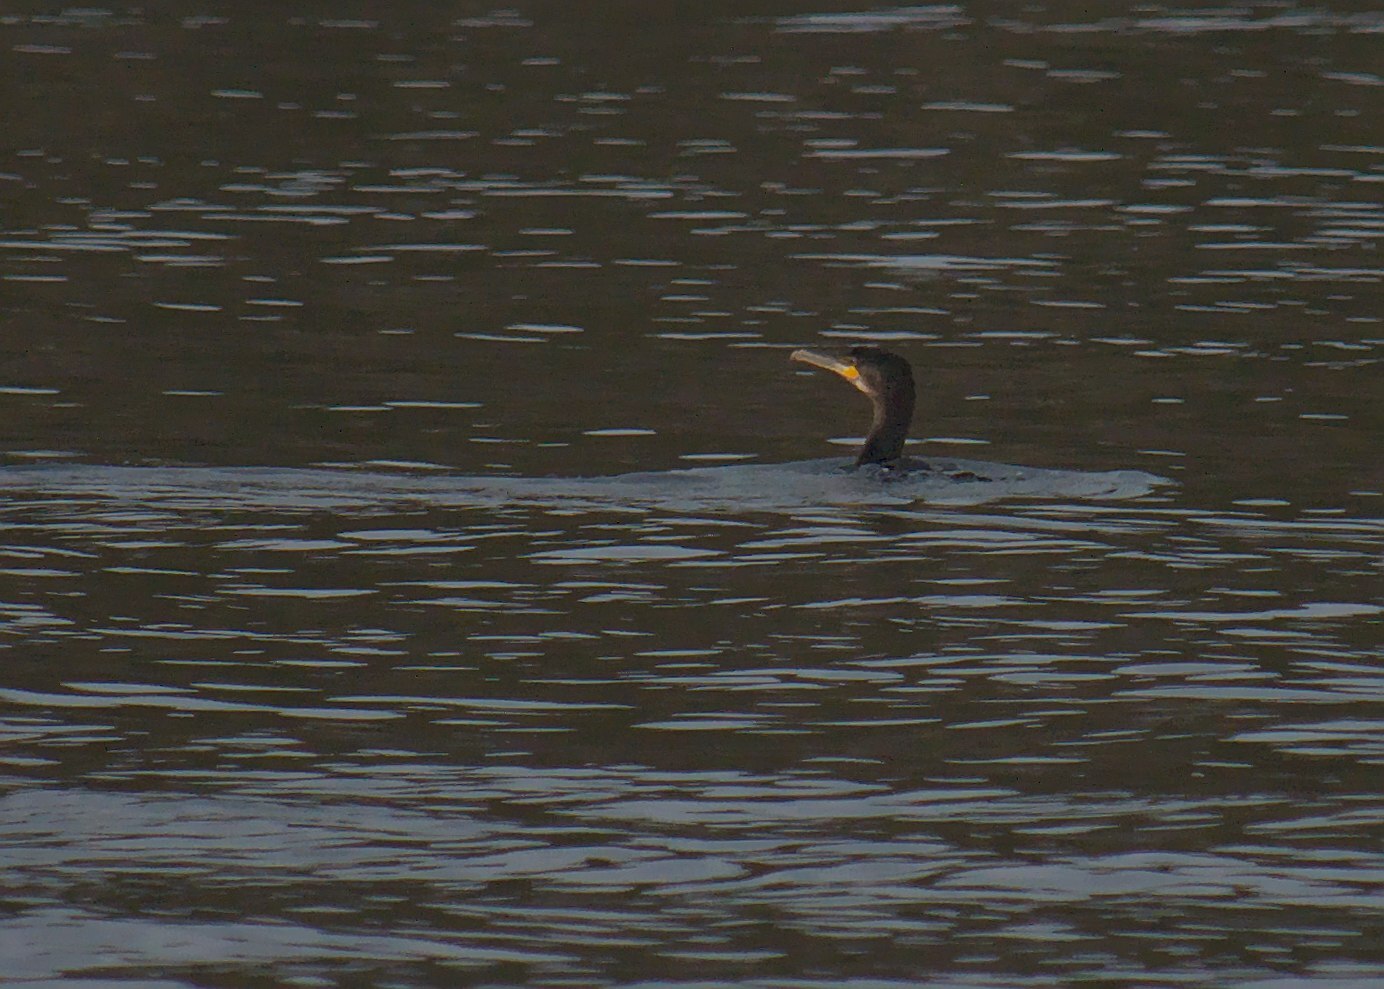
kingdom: Animalia
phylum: Chordata
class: Aves
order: Suliformes
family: Phalacrocoracidae
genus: Phalacrocorax
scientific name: Phalacrocorax carbo
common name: Great cormorant
